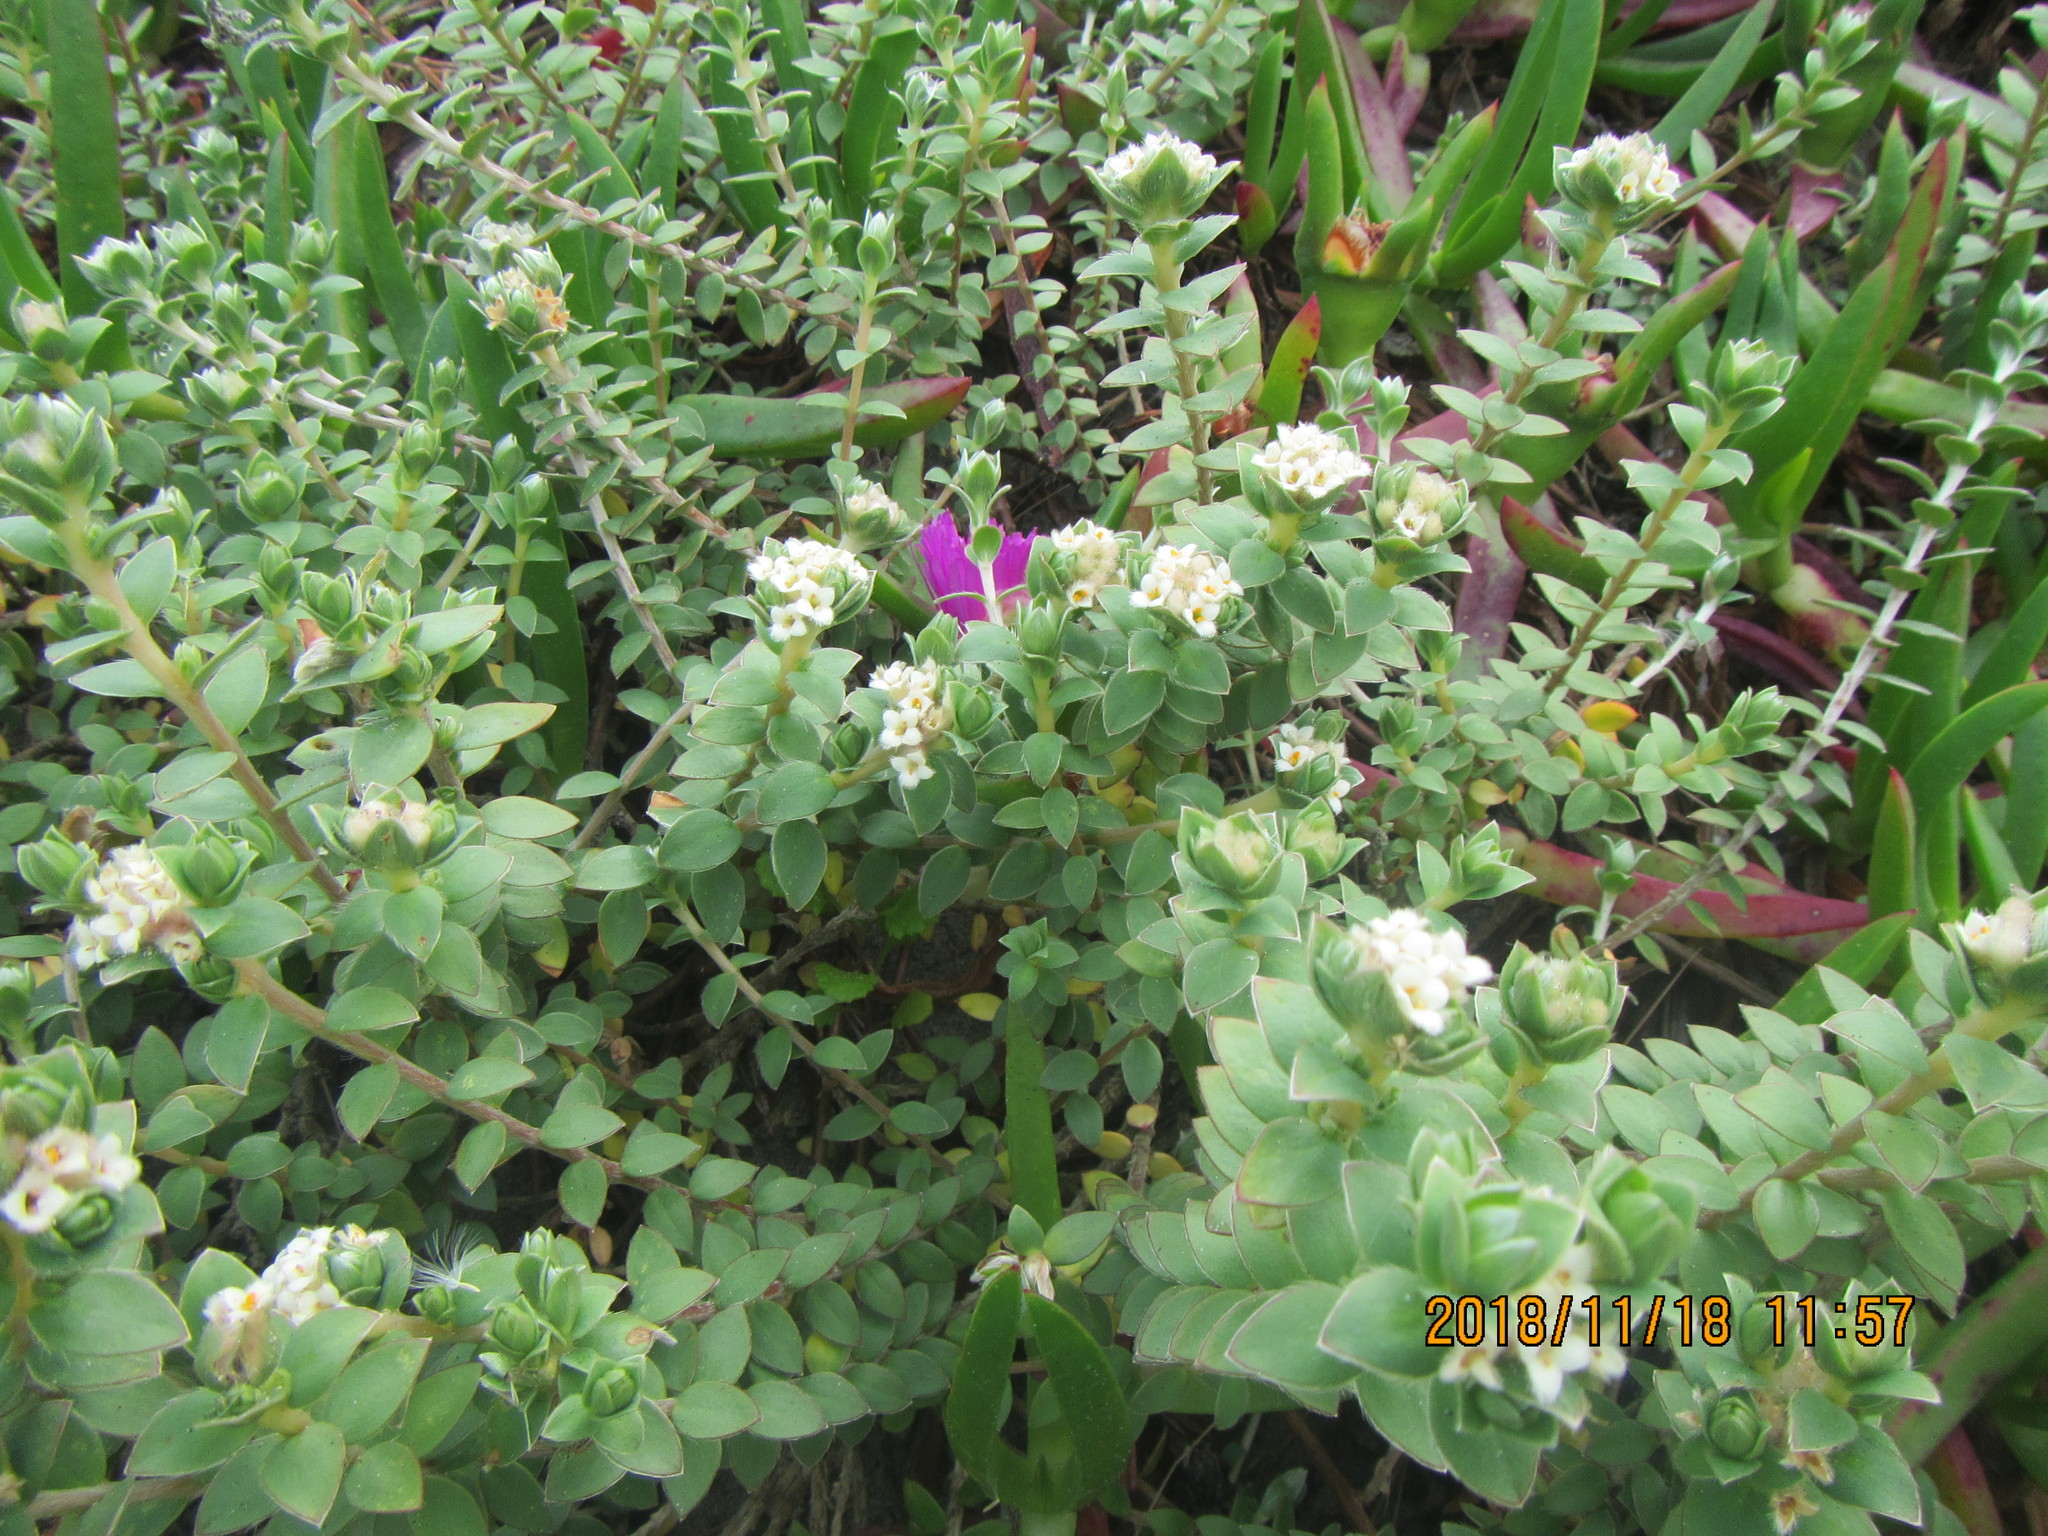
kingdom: Plantae
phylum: Tracheophyta
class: Magnoliopsida
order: Malvales
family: Thymelaeaceae
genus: Pimelea
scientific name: Pimelea villosa
